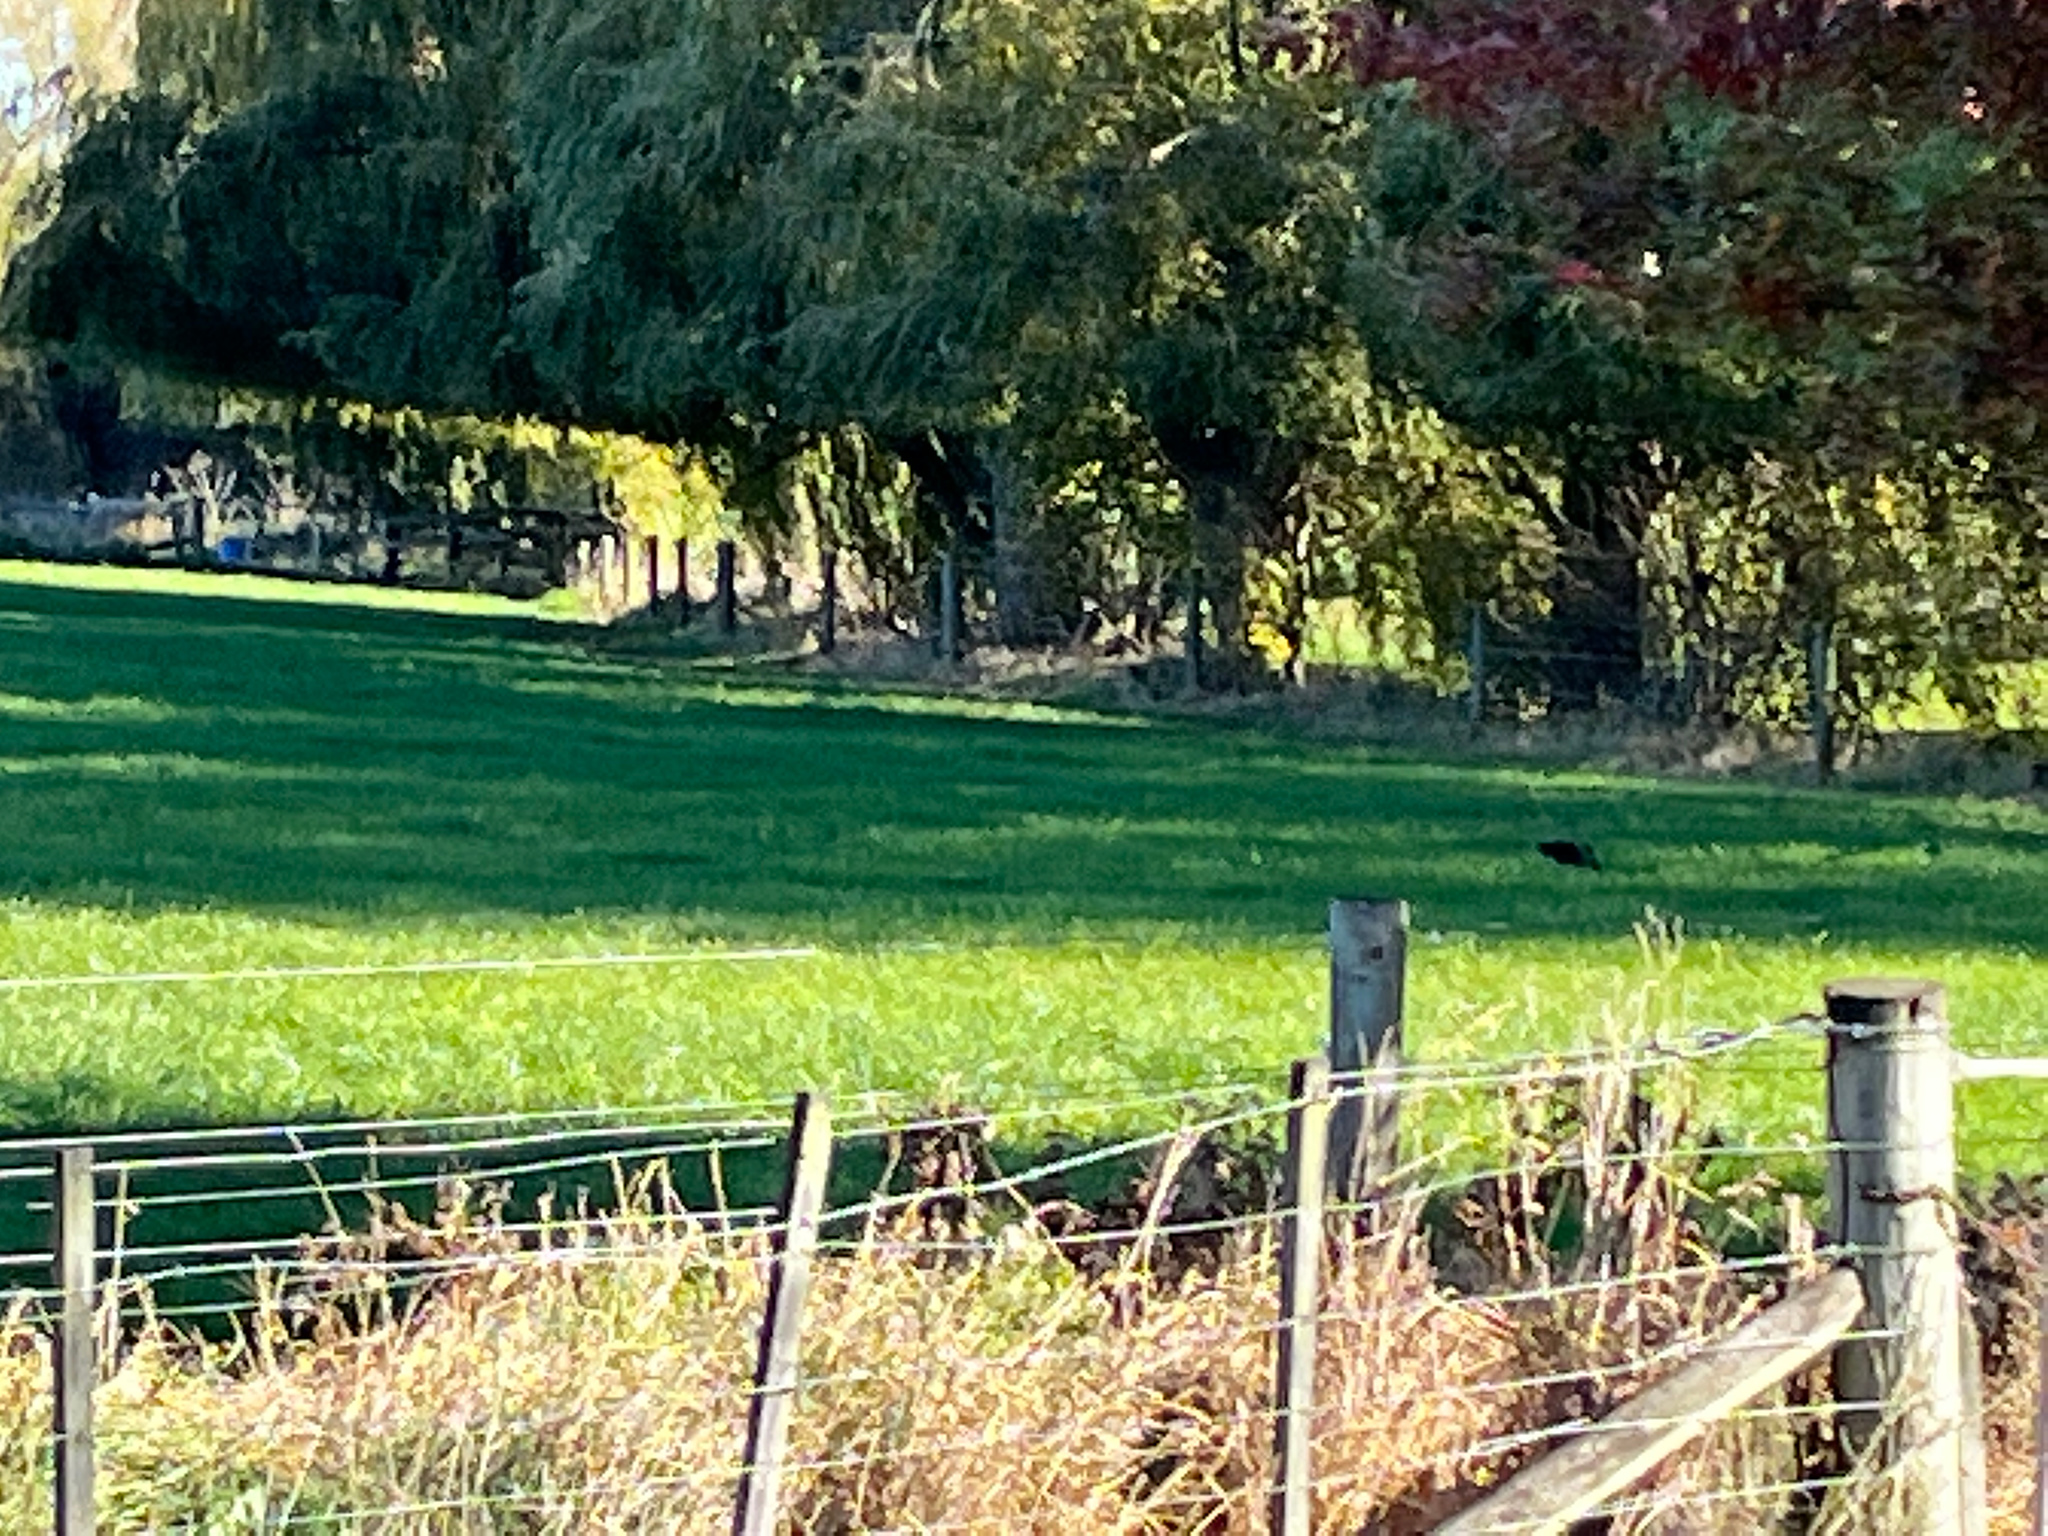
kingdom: Animalia
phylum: Chordata
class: Aves
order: Gruiformes
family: Rallidae
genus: Porphyrio
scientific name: Porphyrio melanotus
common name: Australasian swamphen
